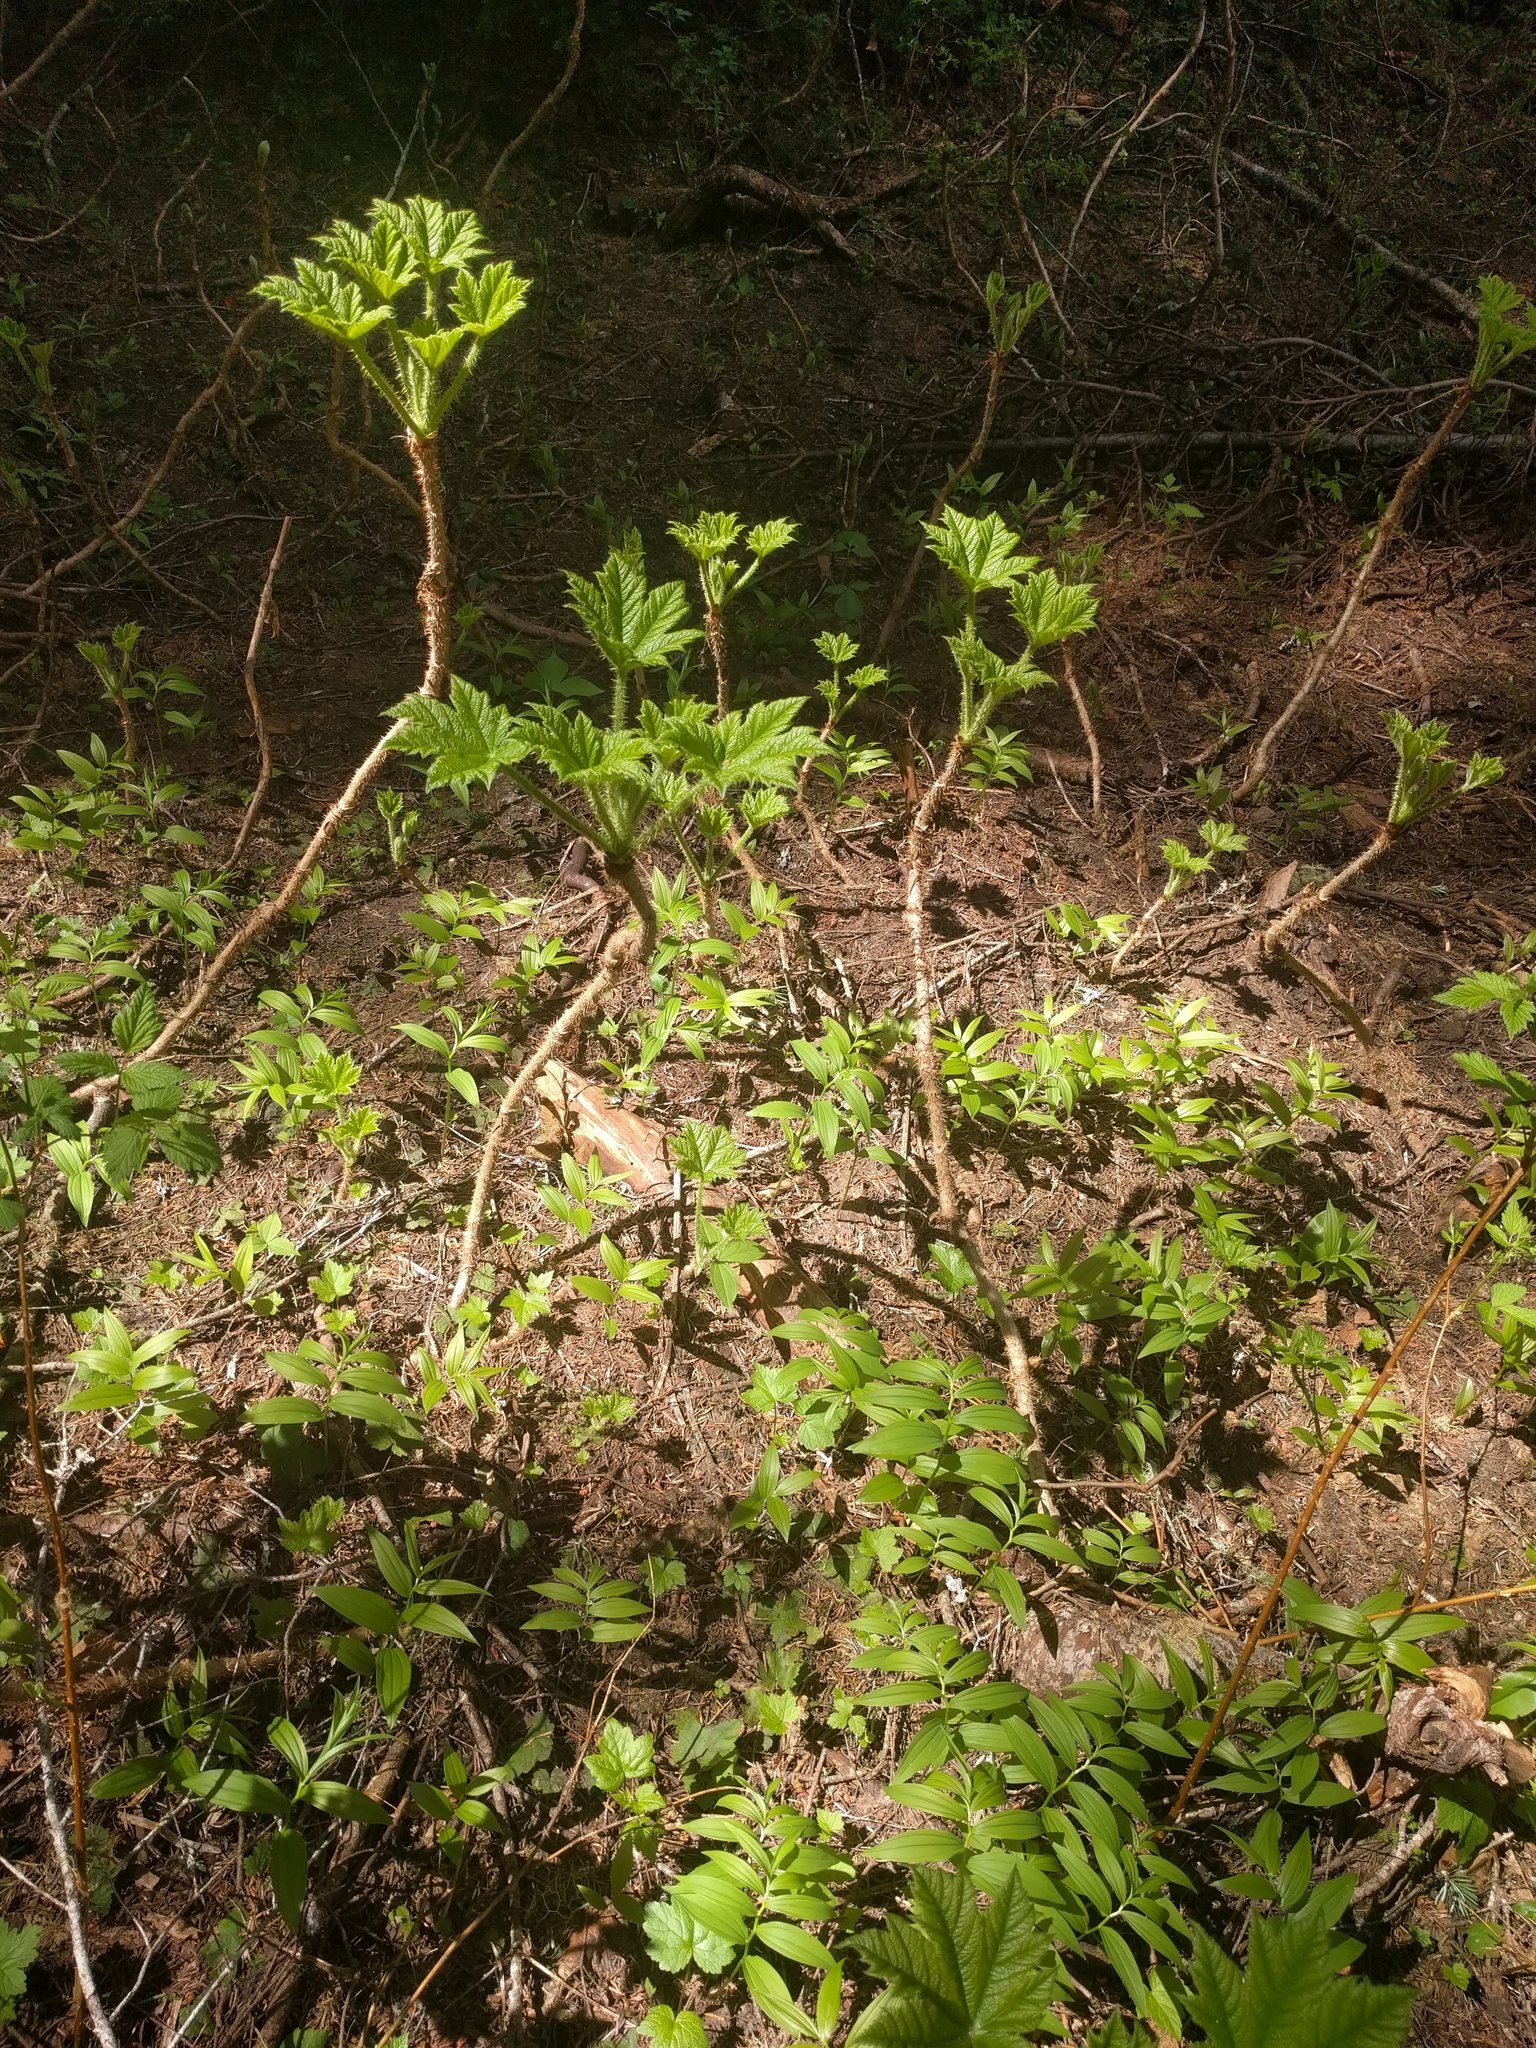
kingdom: Plantae
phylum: Tracheophyta
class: Magnoliopsida
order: Apiales
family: Araliaceae
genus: Oplopanax
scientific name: Oplopanax horridus
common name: Devil's walking-stick
